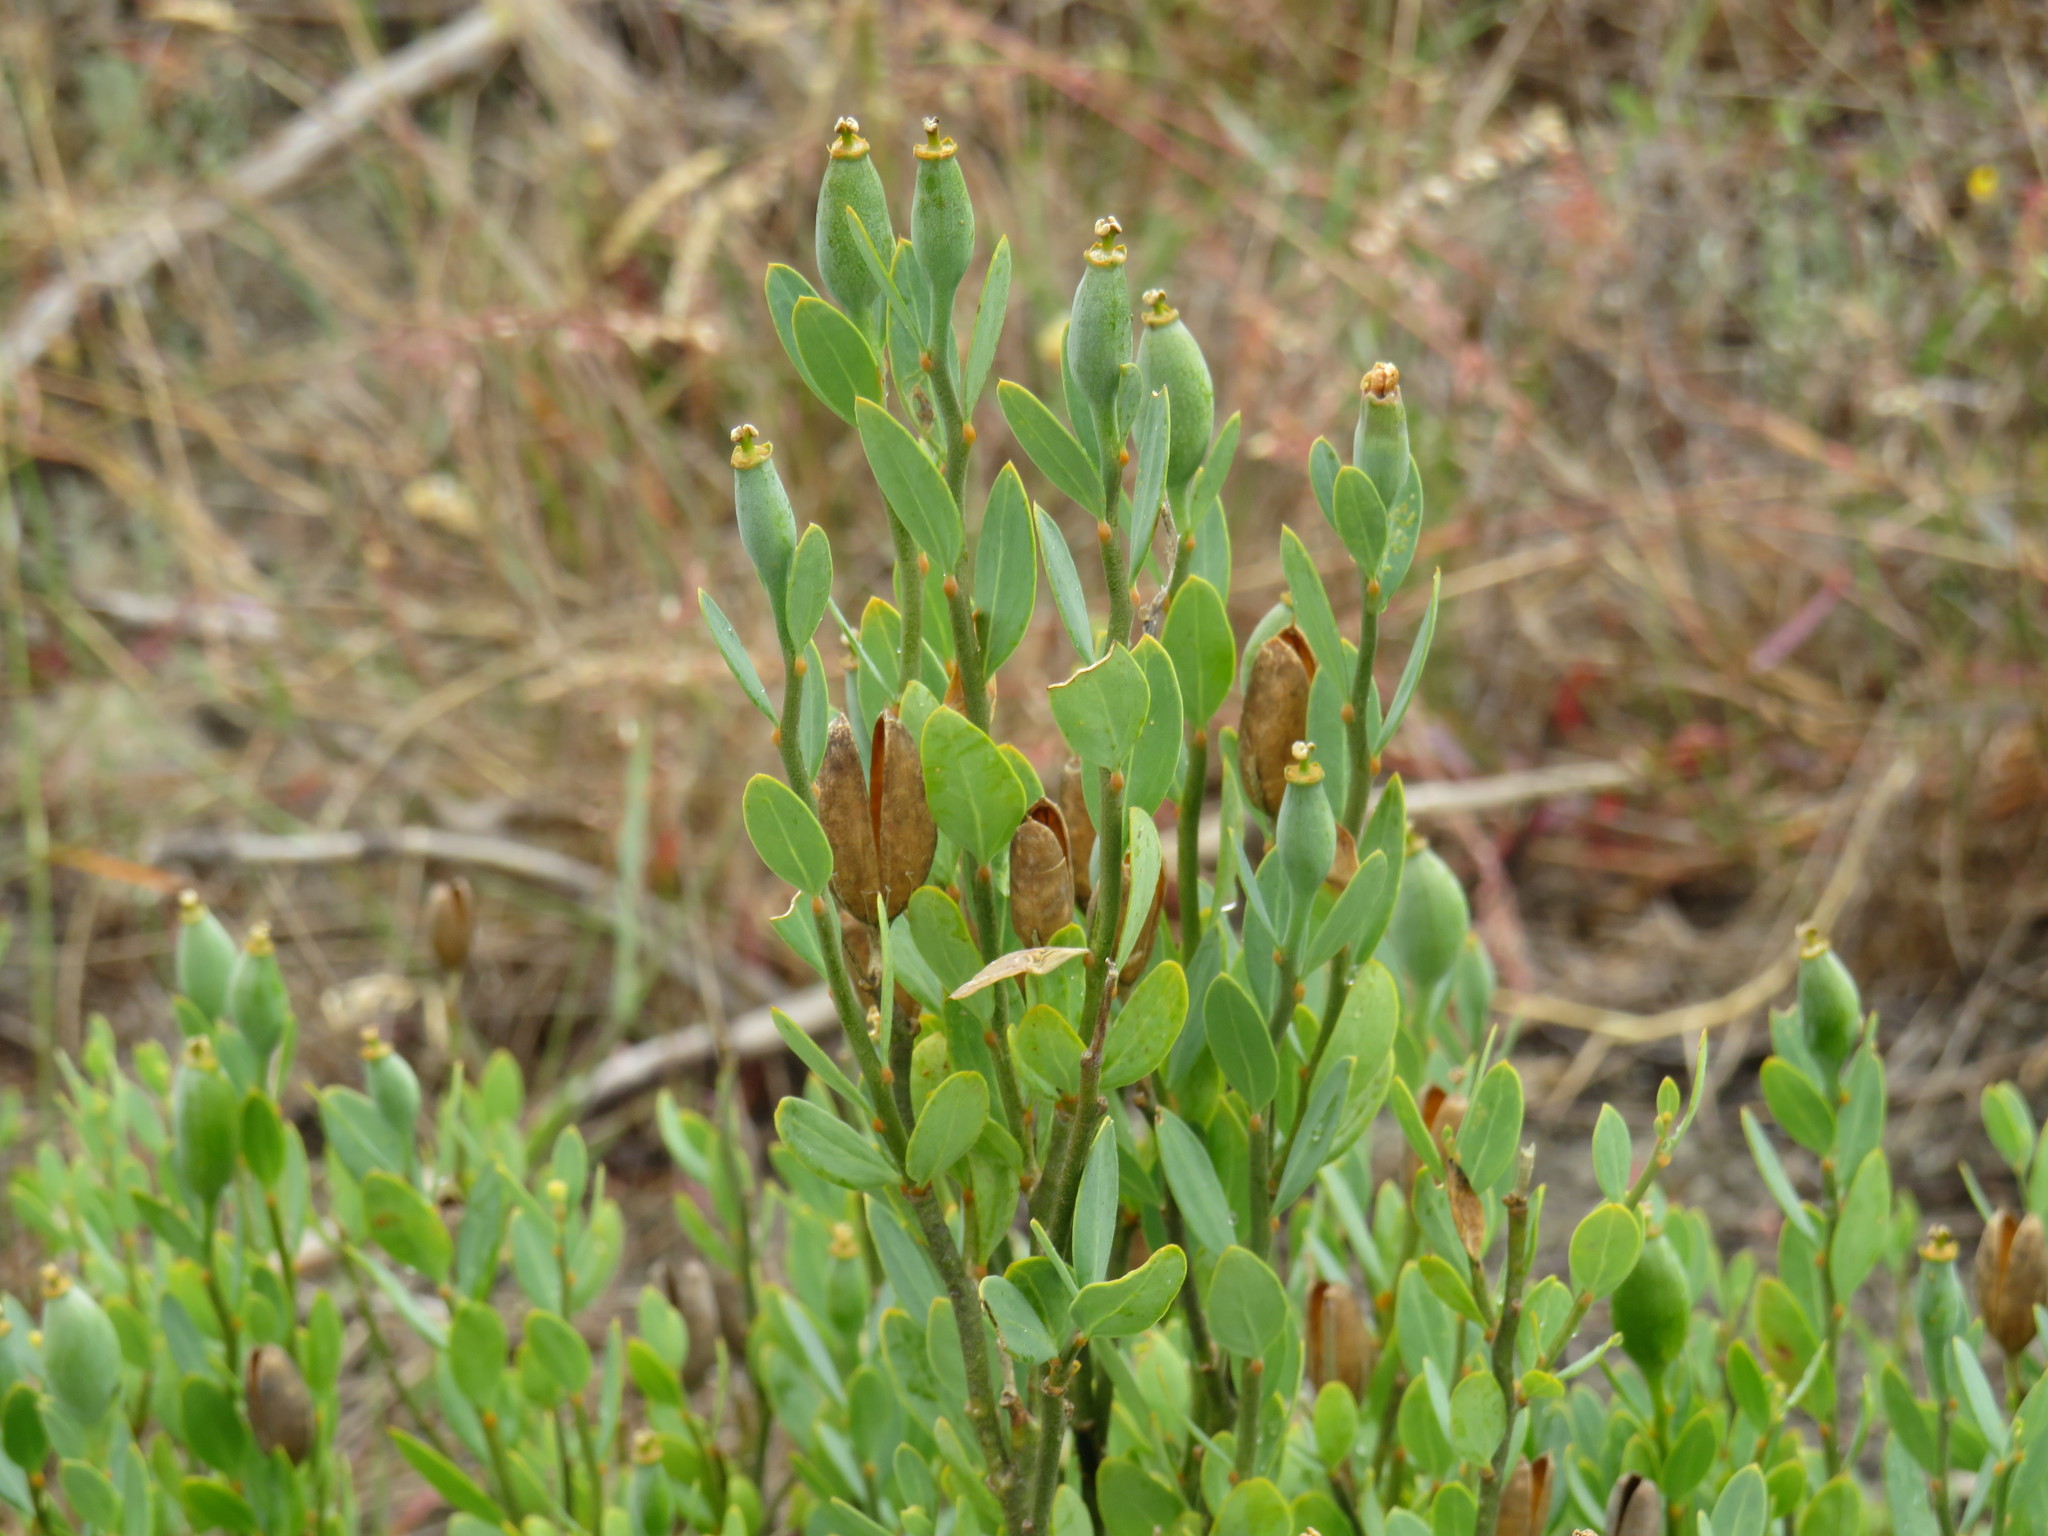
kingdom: Plantae
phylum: Tracheophyta
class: Magnoliopsida
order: Solanales
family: Montiniaceae
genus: Montinia
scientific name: Montinia caryophyllacea
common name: Wild clove-bush
